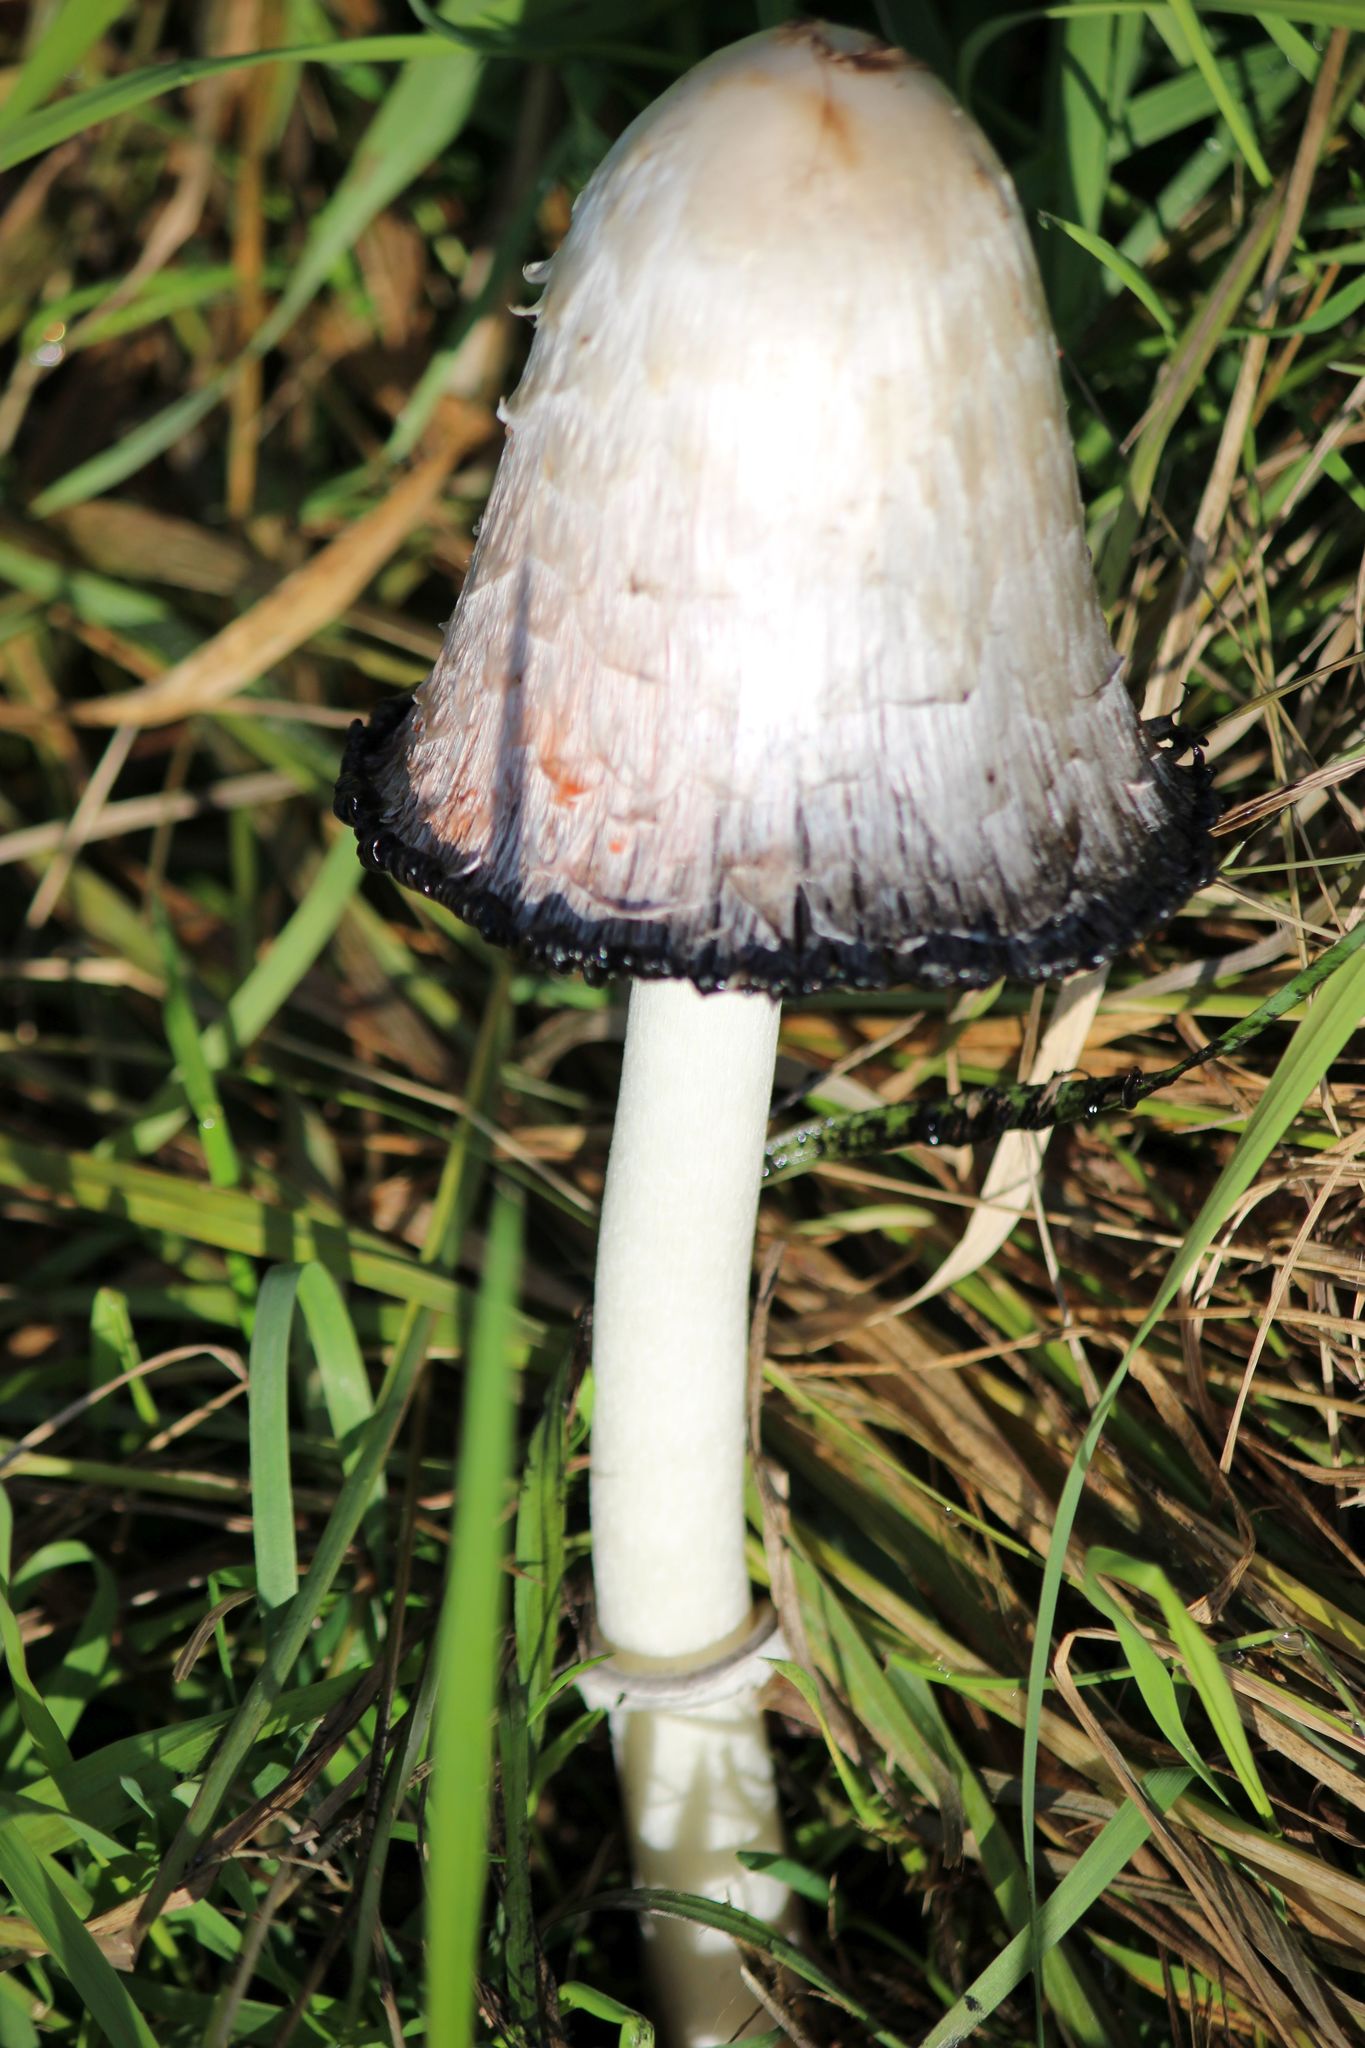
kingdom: Fungi
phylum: Basidiomycota
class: Agaricomycetes
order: Agaricales
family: Agaricaceae
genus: Coprinus
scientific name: Coprinus comatus
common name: Lawyer's wig
